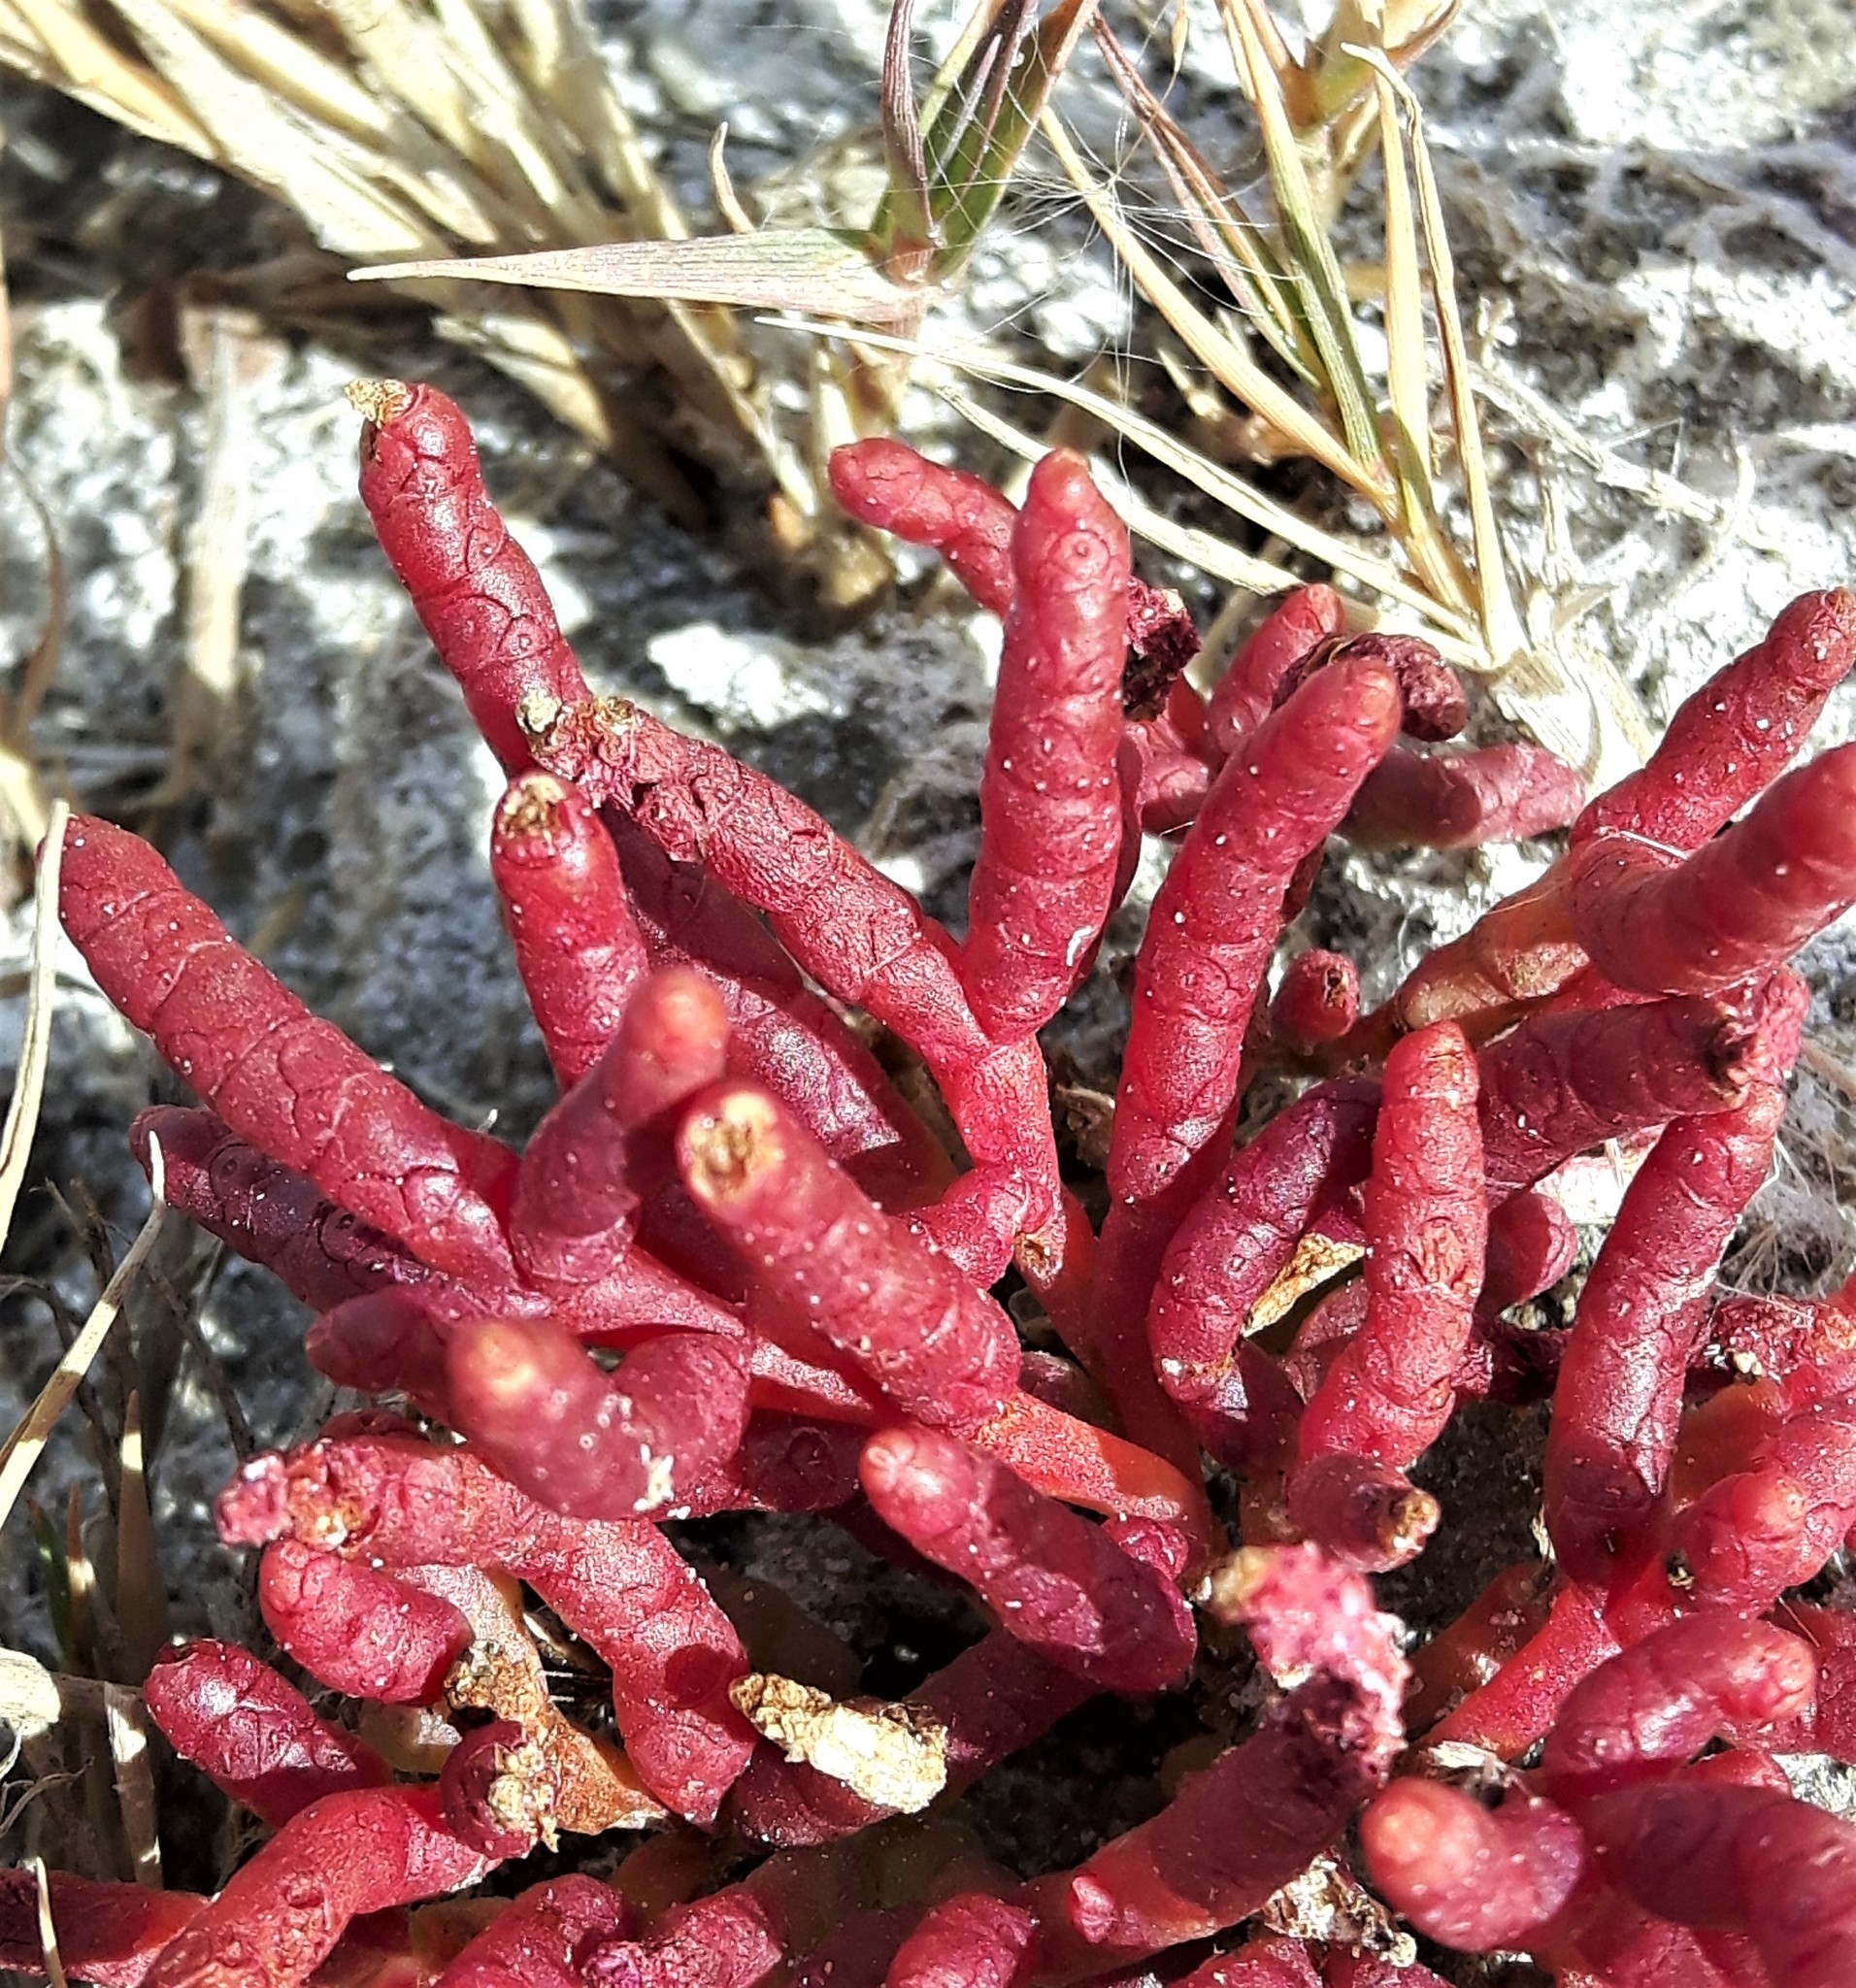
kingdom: Plantae
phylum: Tracheophyta
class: Magnoliopsida
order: Caryophyllales
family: Amaranthaceae
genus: Salicornia
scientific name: Salicornia rubra
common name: Red glasswort
